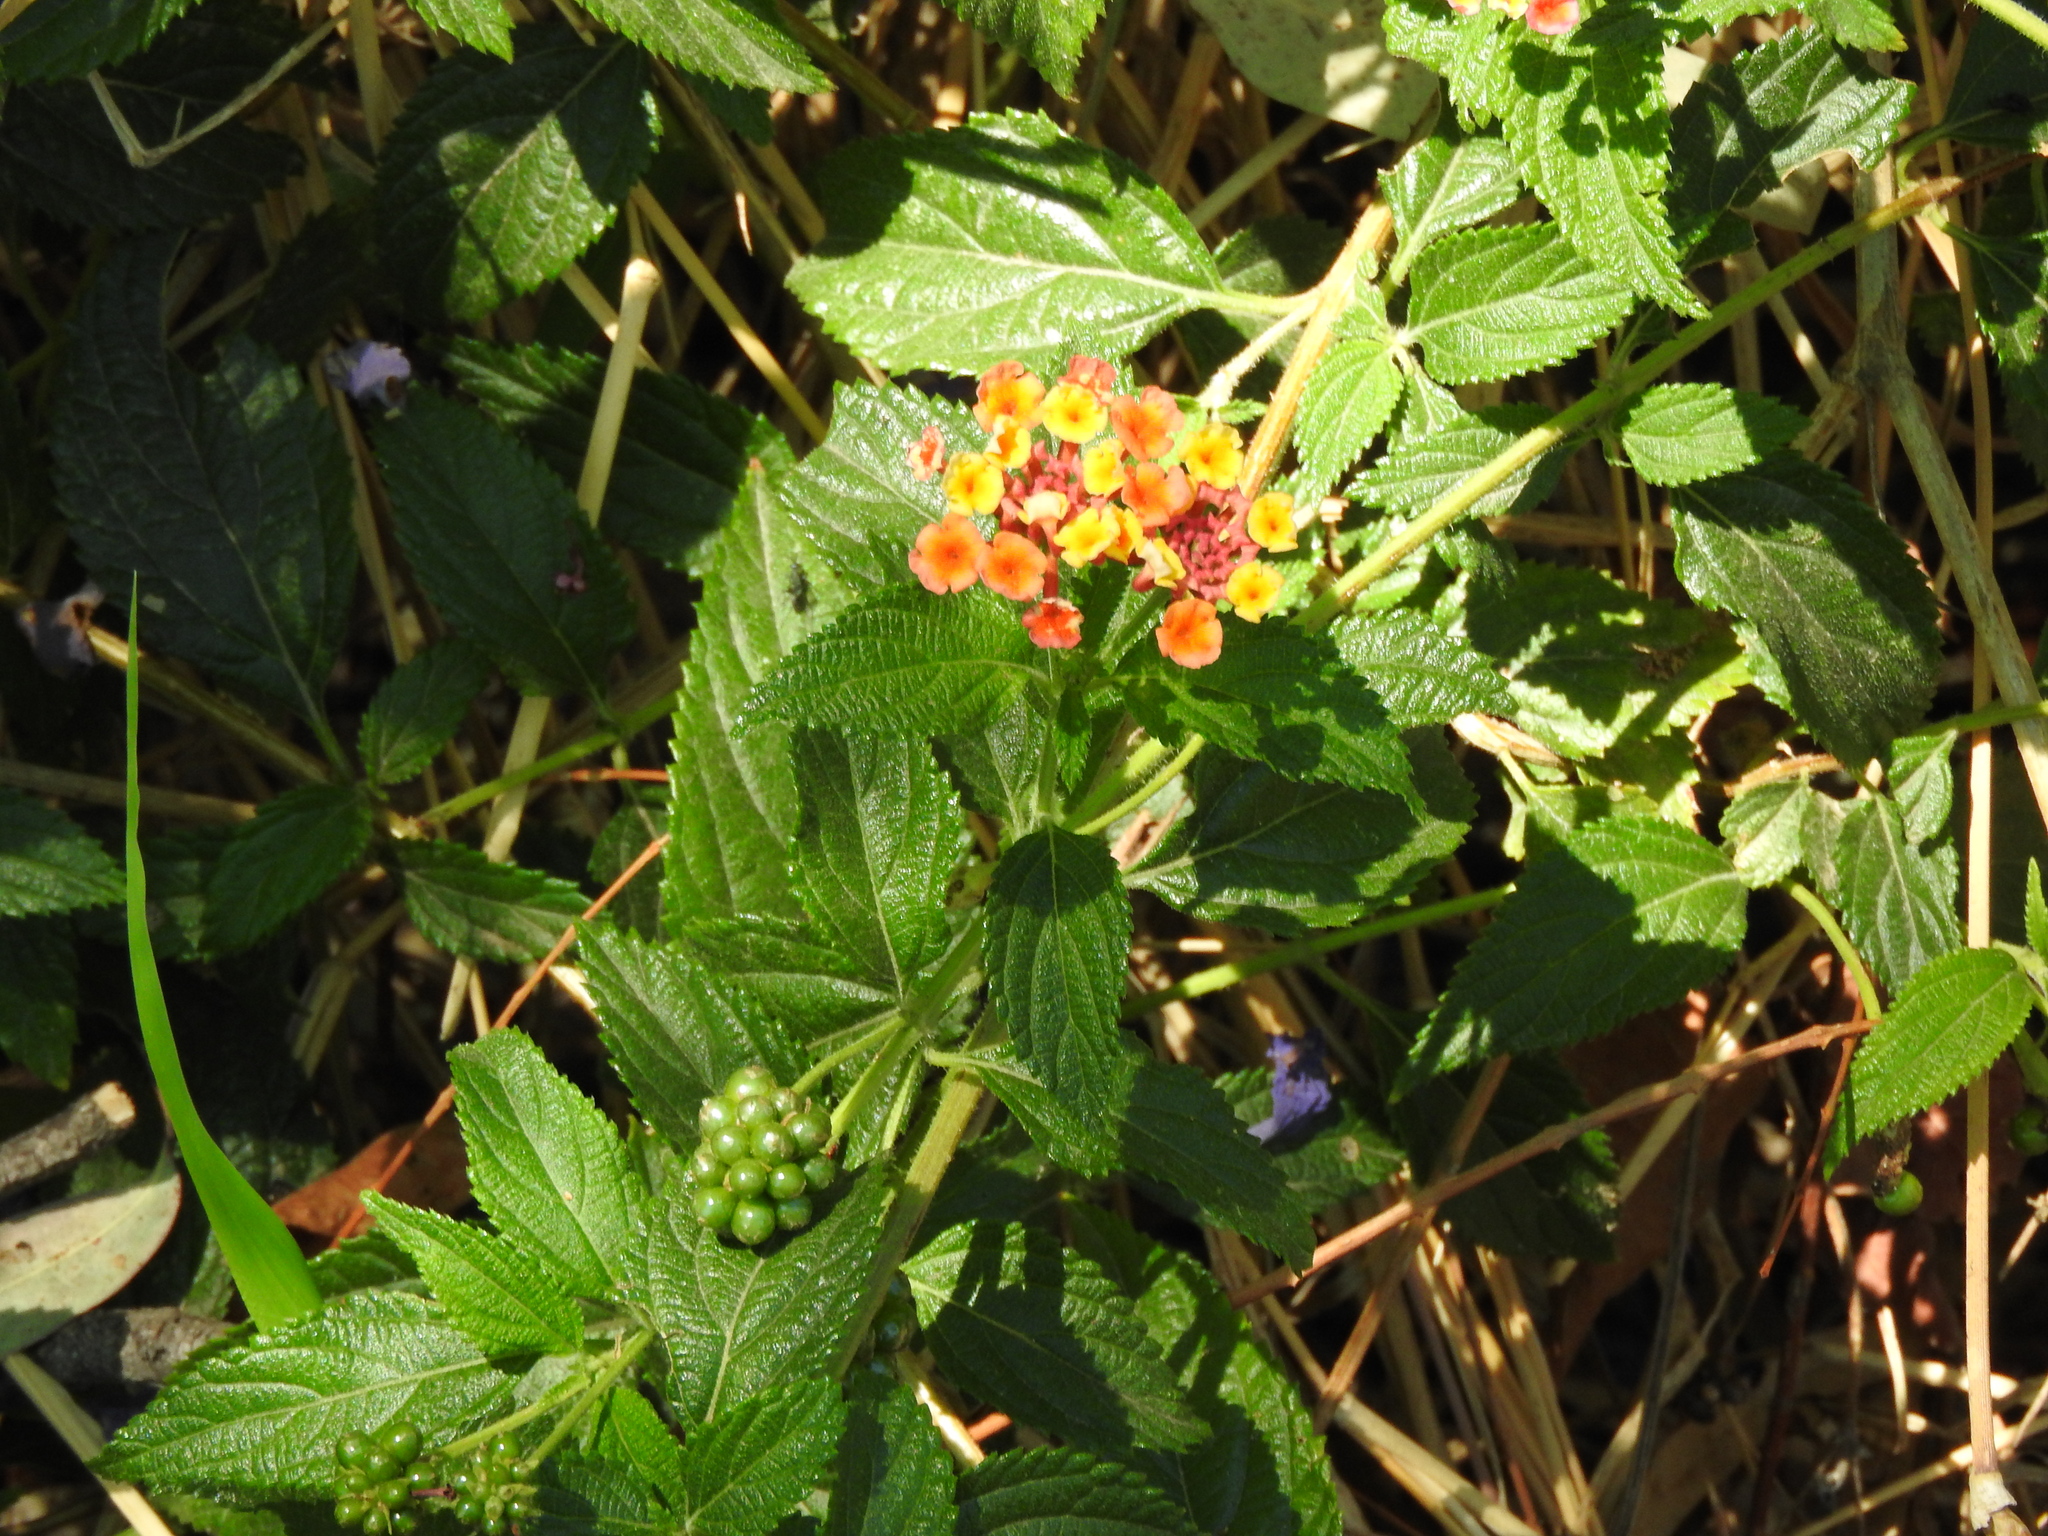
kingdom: Plantae
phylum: Tracheophyta
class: Magnoliopsida
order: Lamiales
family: Verbenaceae
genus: Lantana
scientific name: Lantana camara
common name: Lantana
